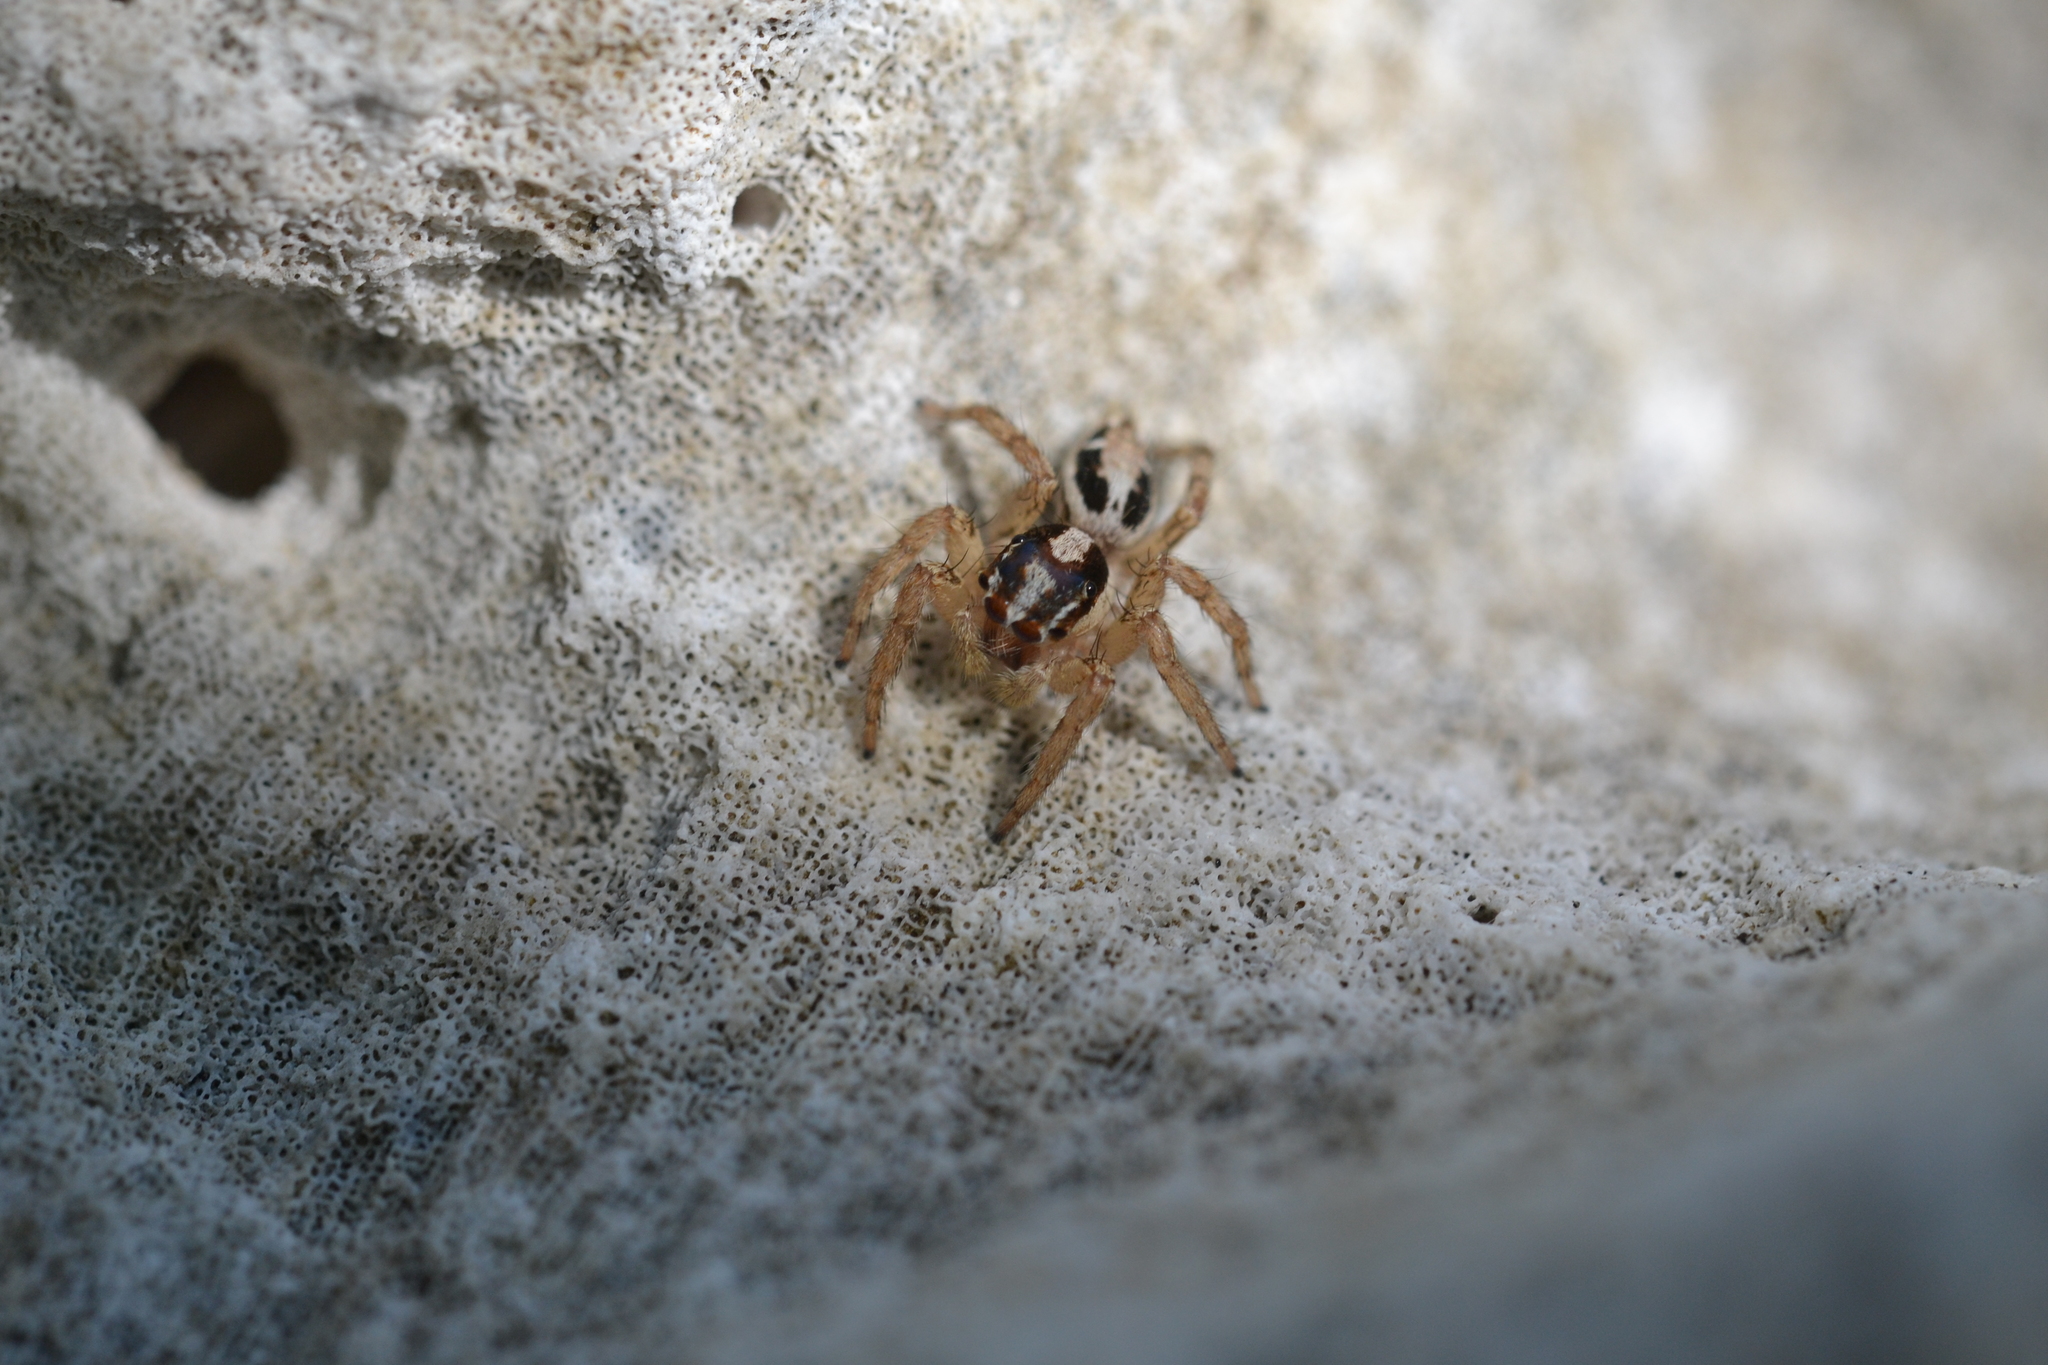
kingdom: Animalia
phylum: Arthropoda
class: Arachnida
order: Araneae
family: Salticidae
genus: Plexippus
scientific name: Plexippus paykulli
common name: Pantropical jumper
